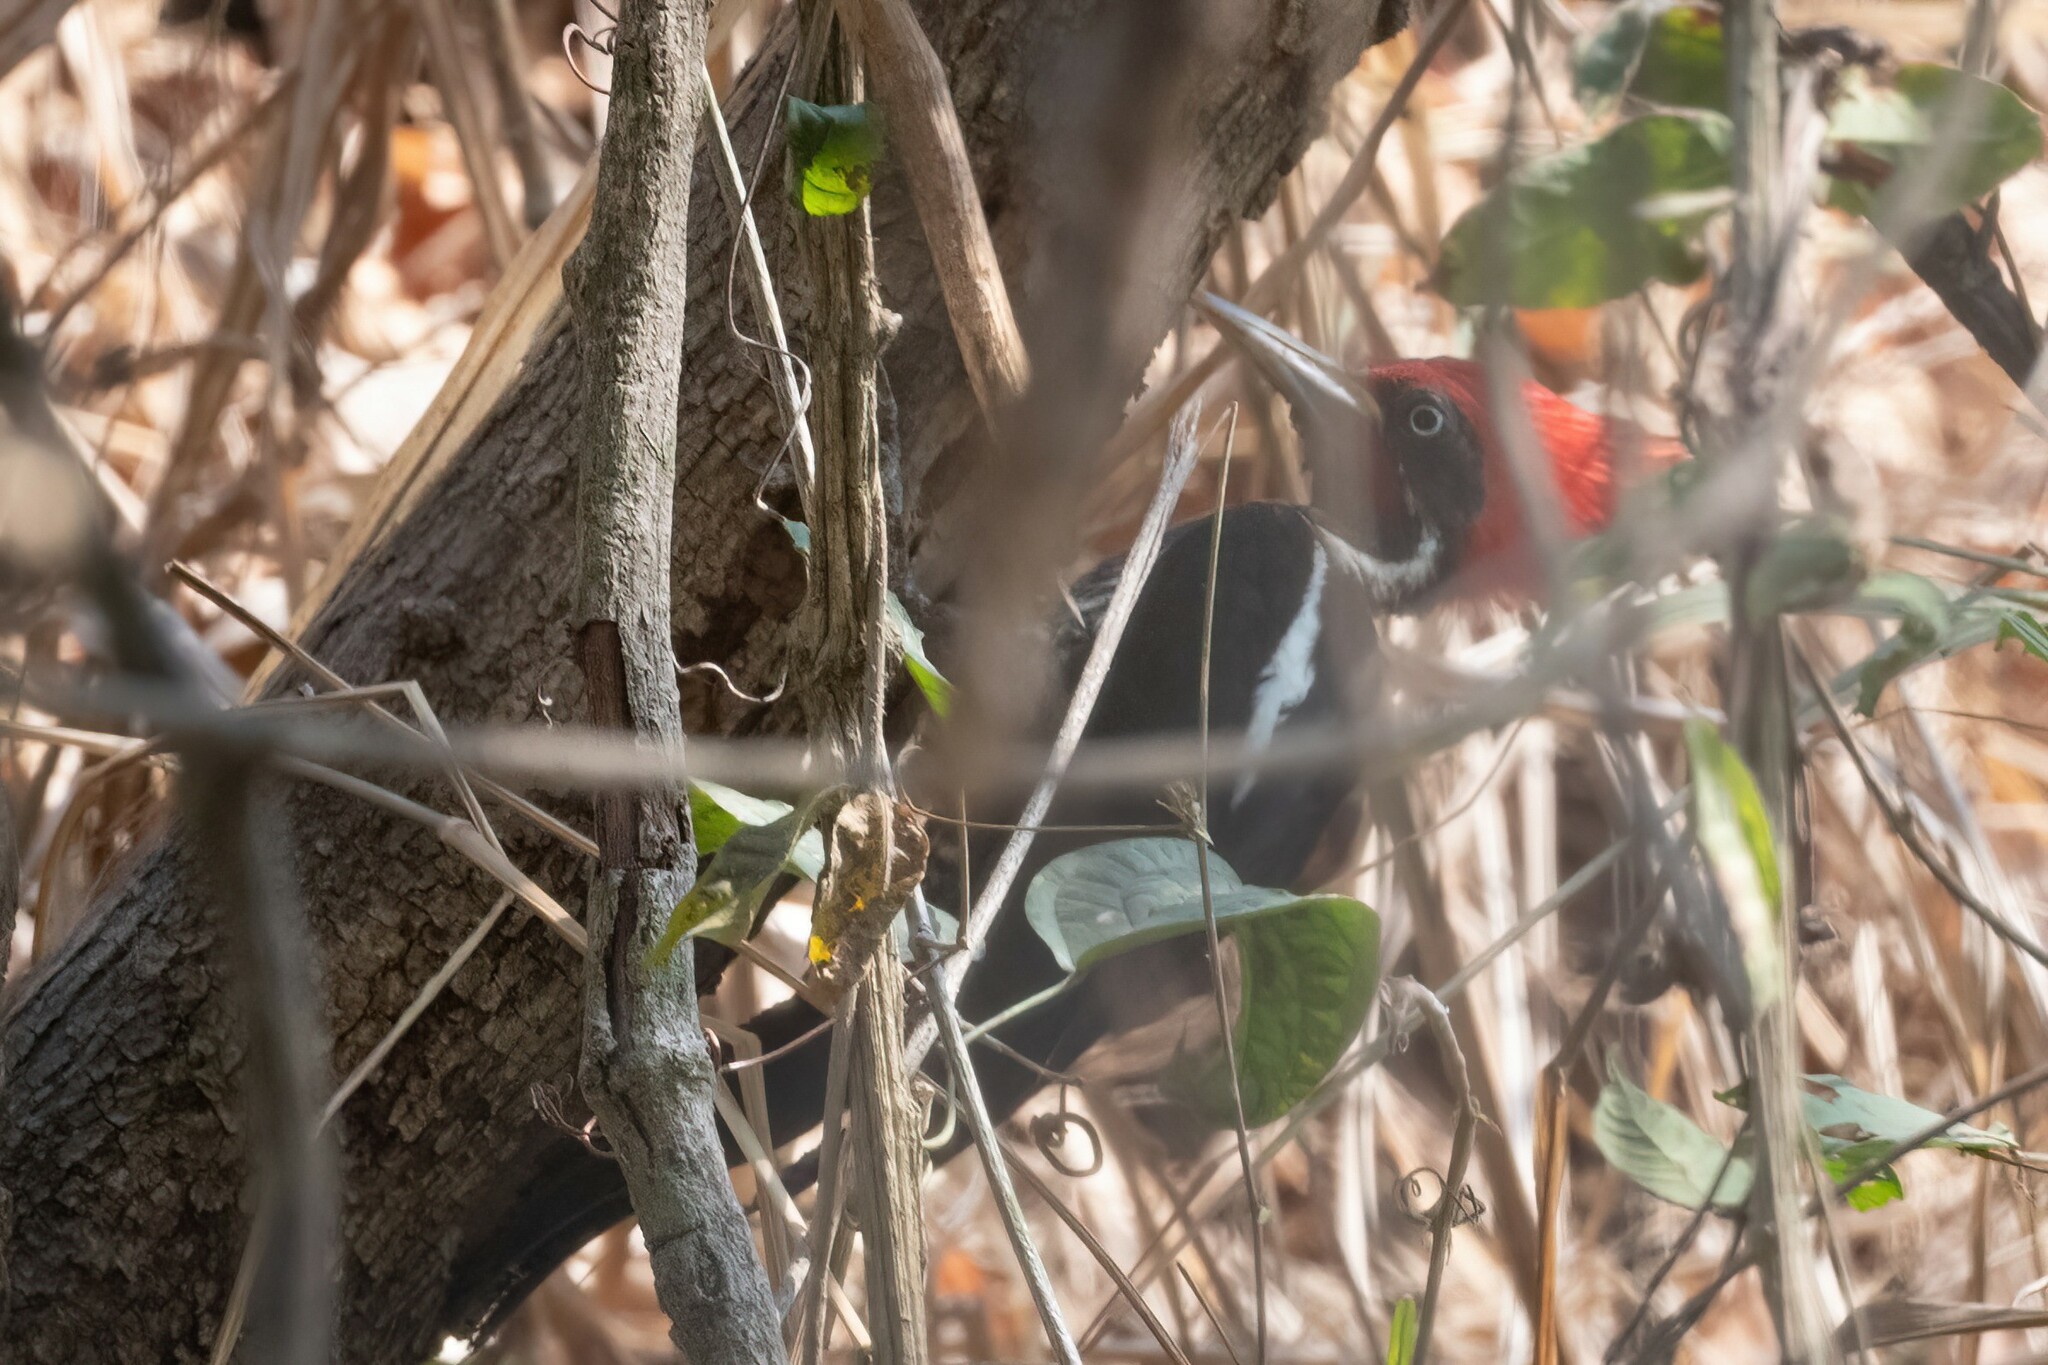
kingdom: Animalia
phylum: Chordata
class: Aves
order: Piciformes
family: Picidae
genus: Dryocopus
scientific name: Dryocopus lineatus
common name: Lineated woodpecker
